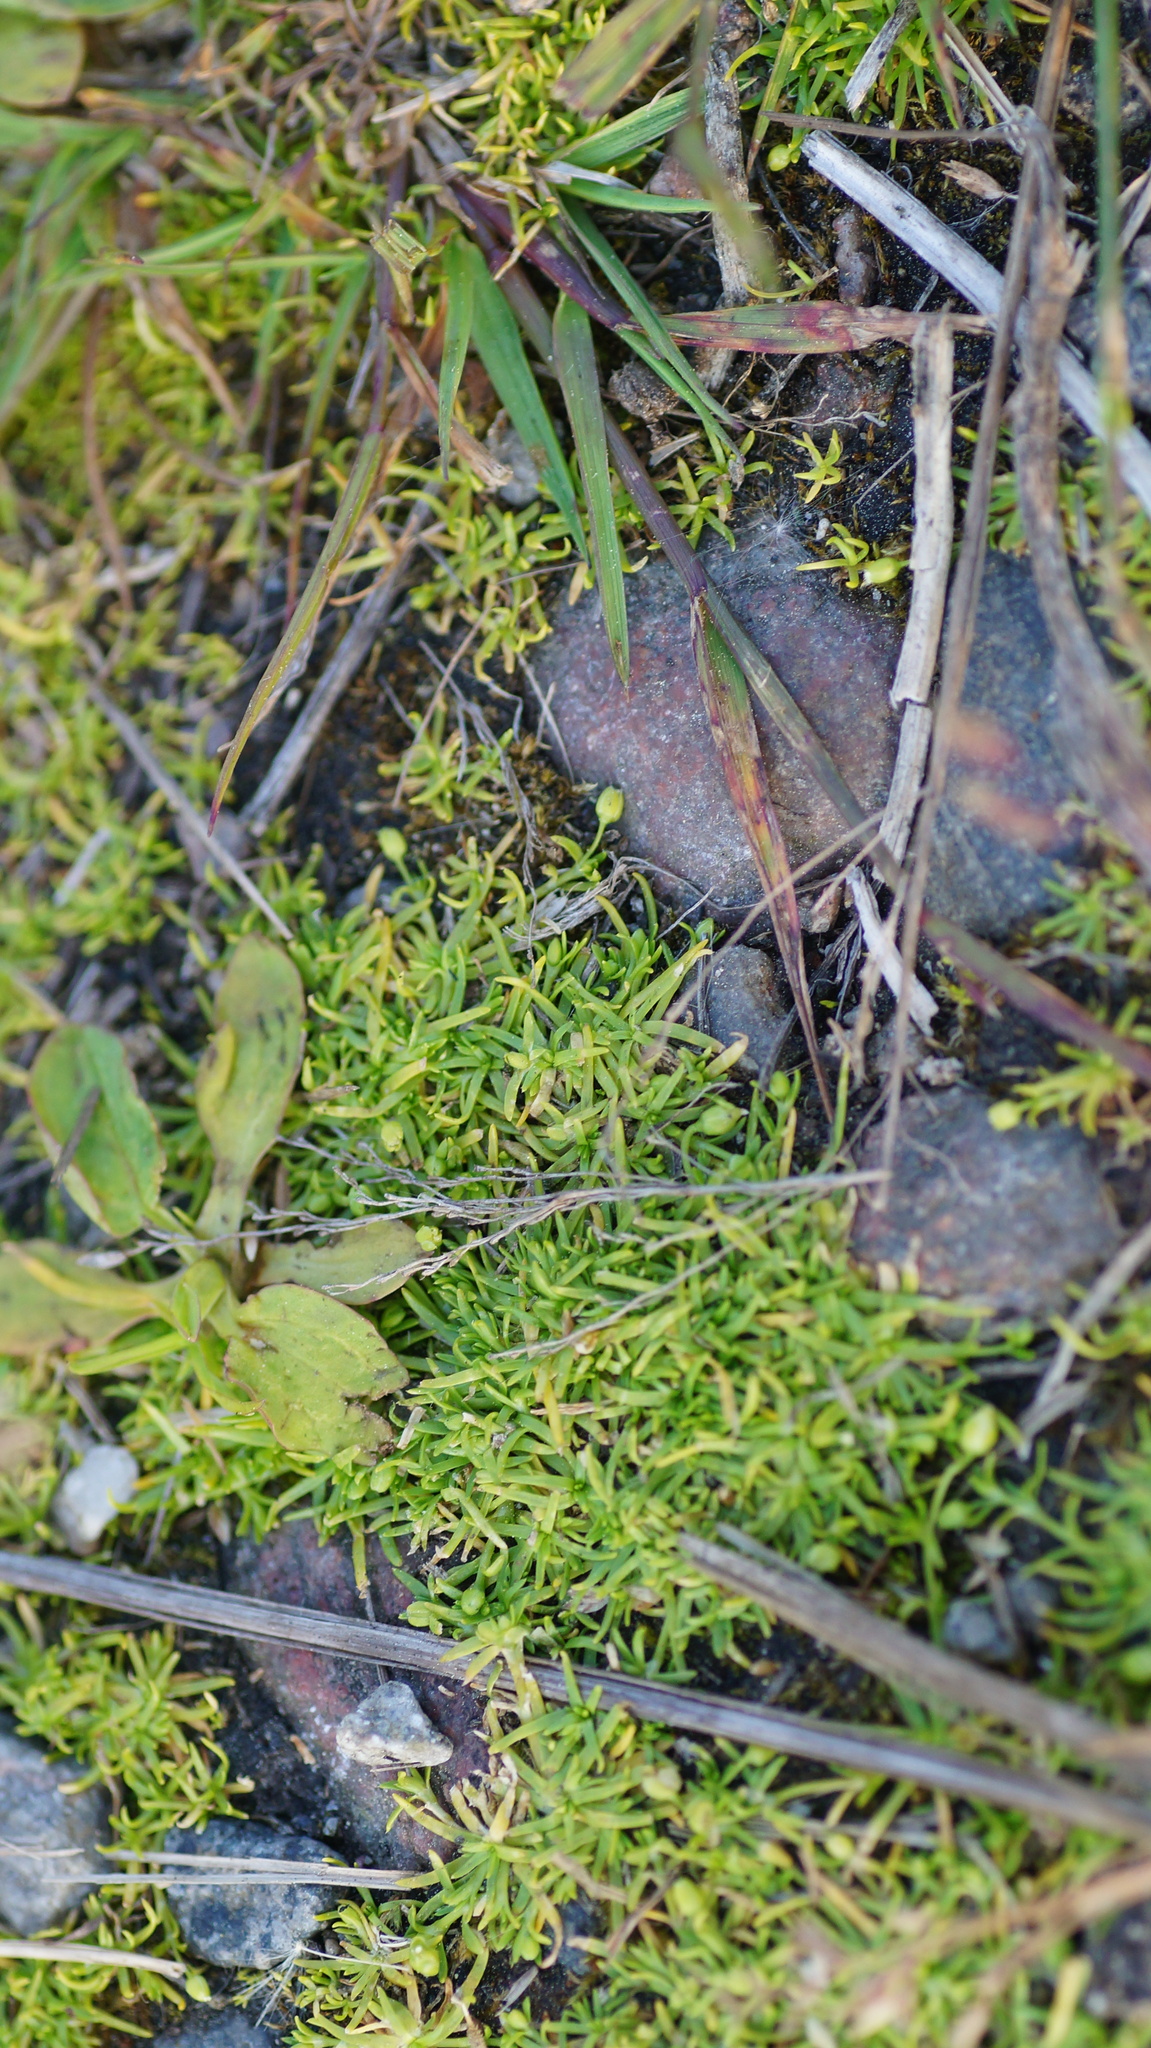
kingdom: Plantae
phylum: Tracheophyta
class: Magnoliopsida
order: Caryophyllales
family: Caryophyllaceae
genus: Sagina
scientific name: Sagina procumbens
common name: Procumbent pearlwort
